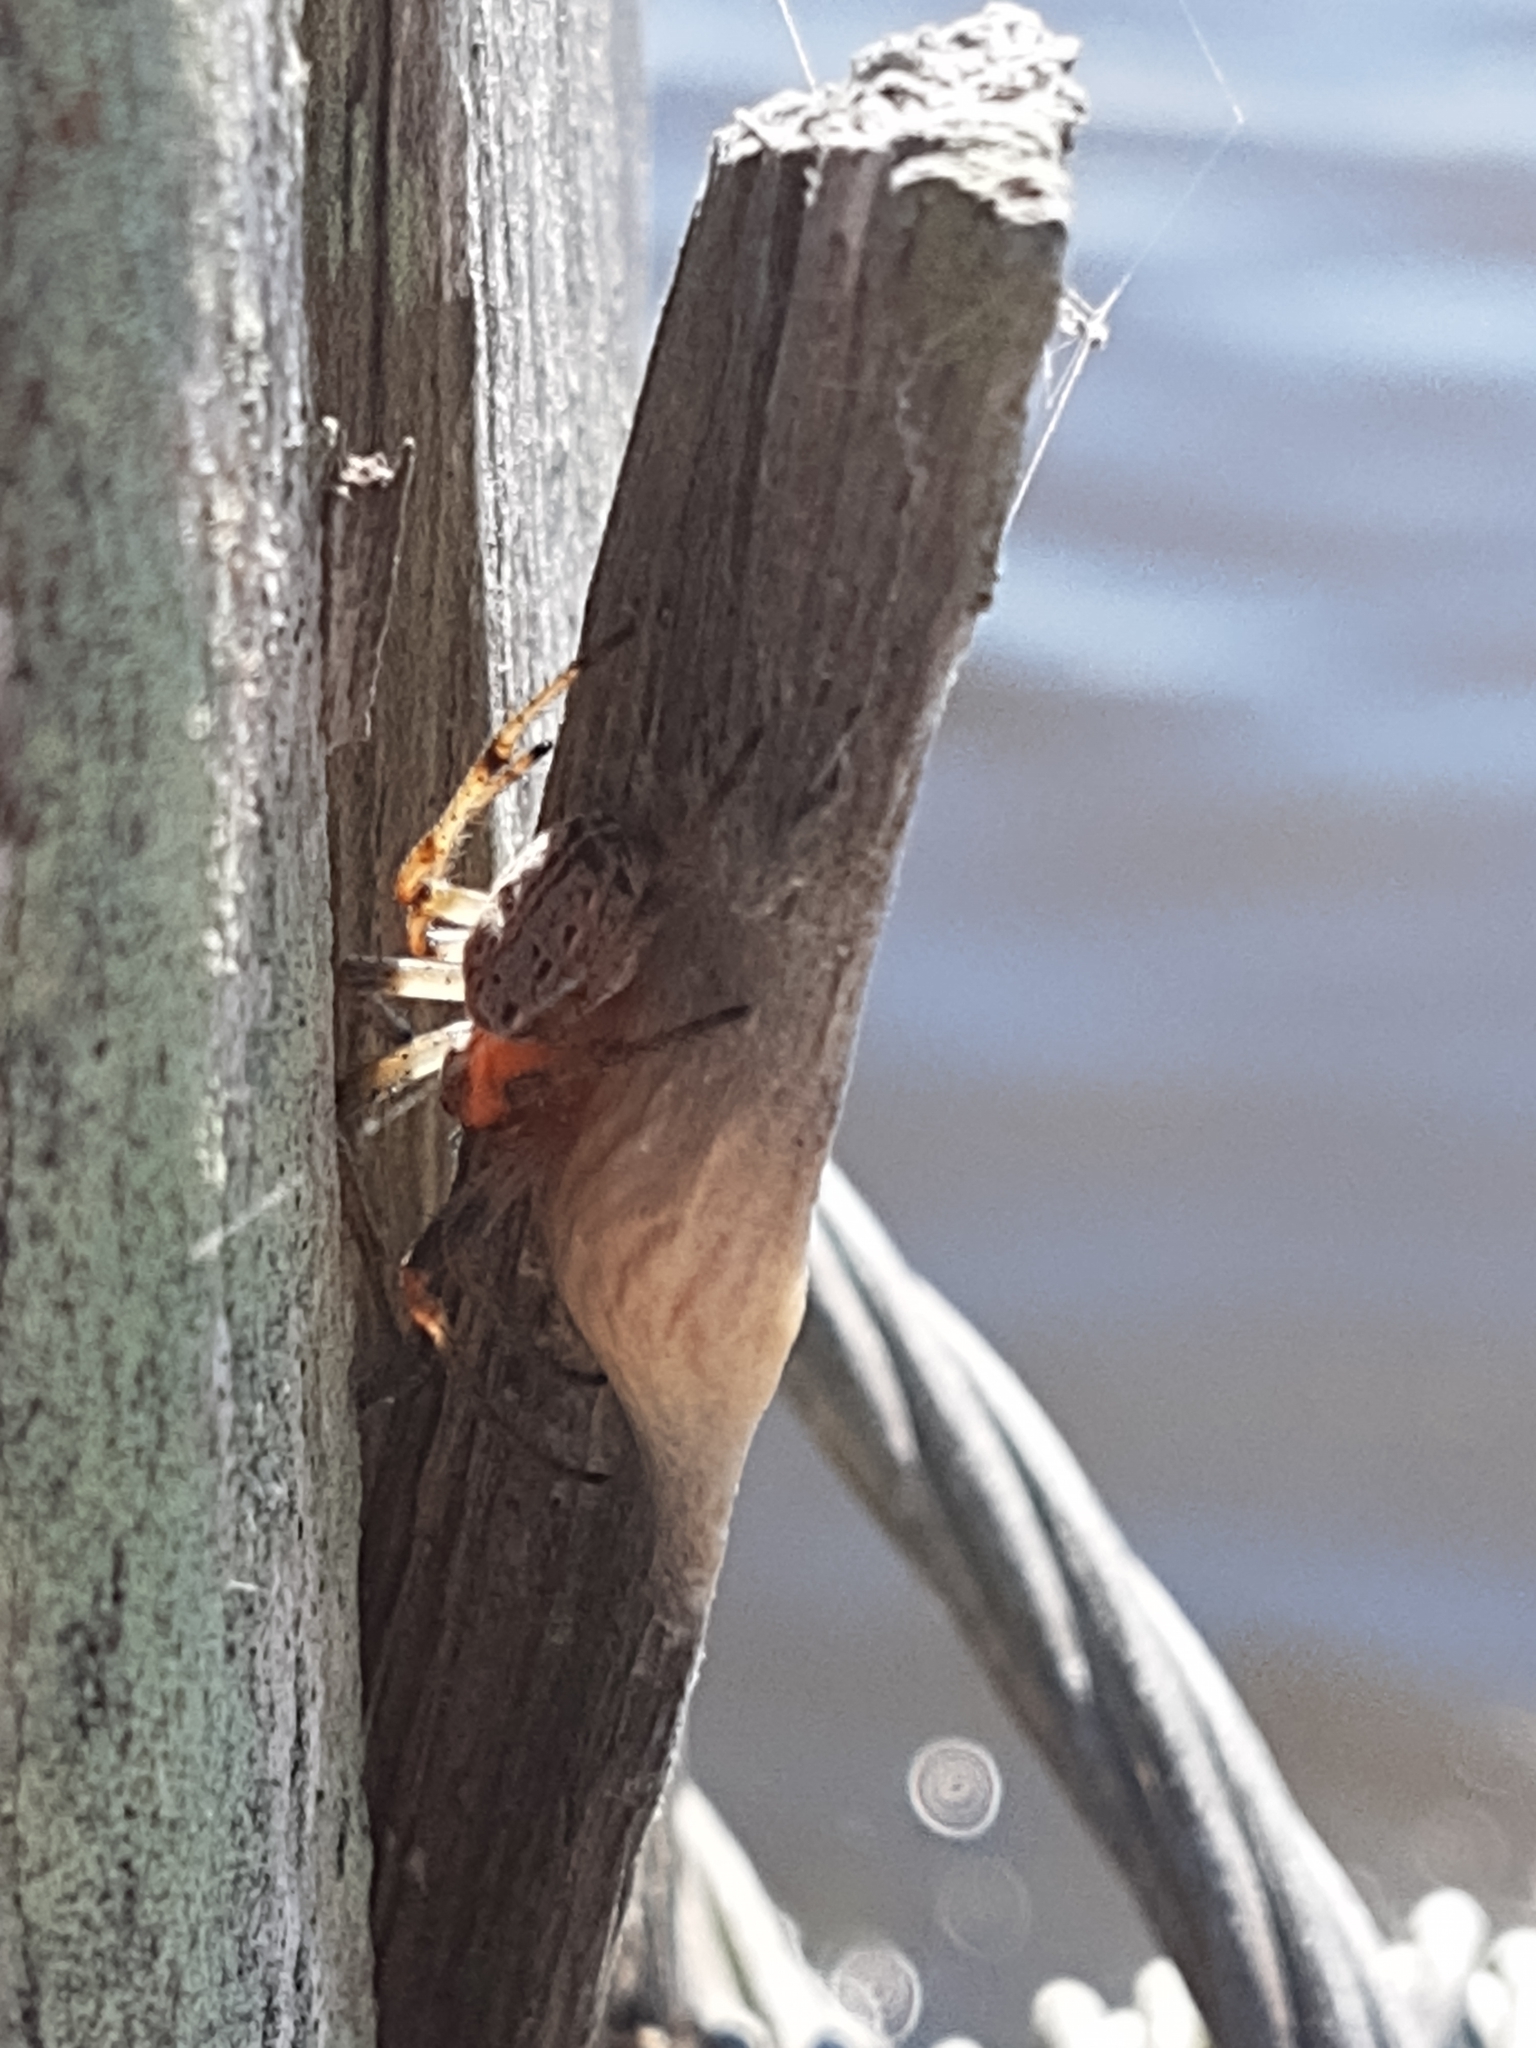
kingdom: Animalia
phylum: Arthropoda
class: Arachnida
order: Araneae
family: Araneidae
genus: Alpaida
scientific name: Alpaida veniliae
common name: Orb weavers
